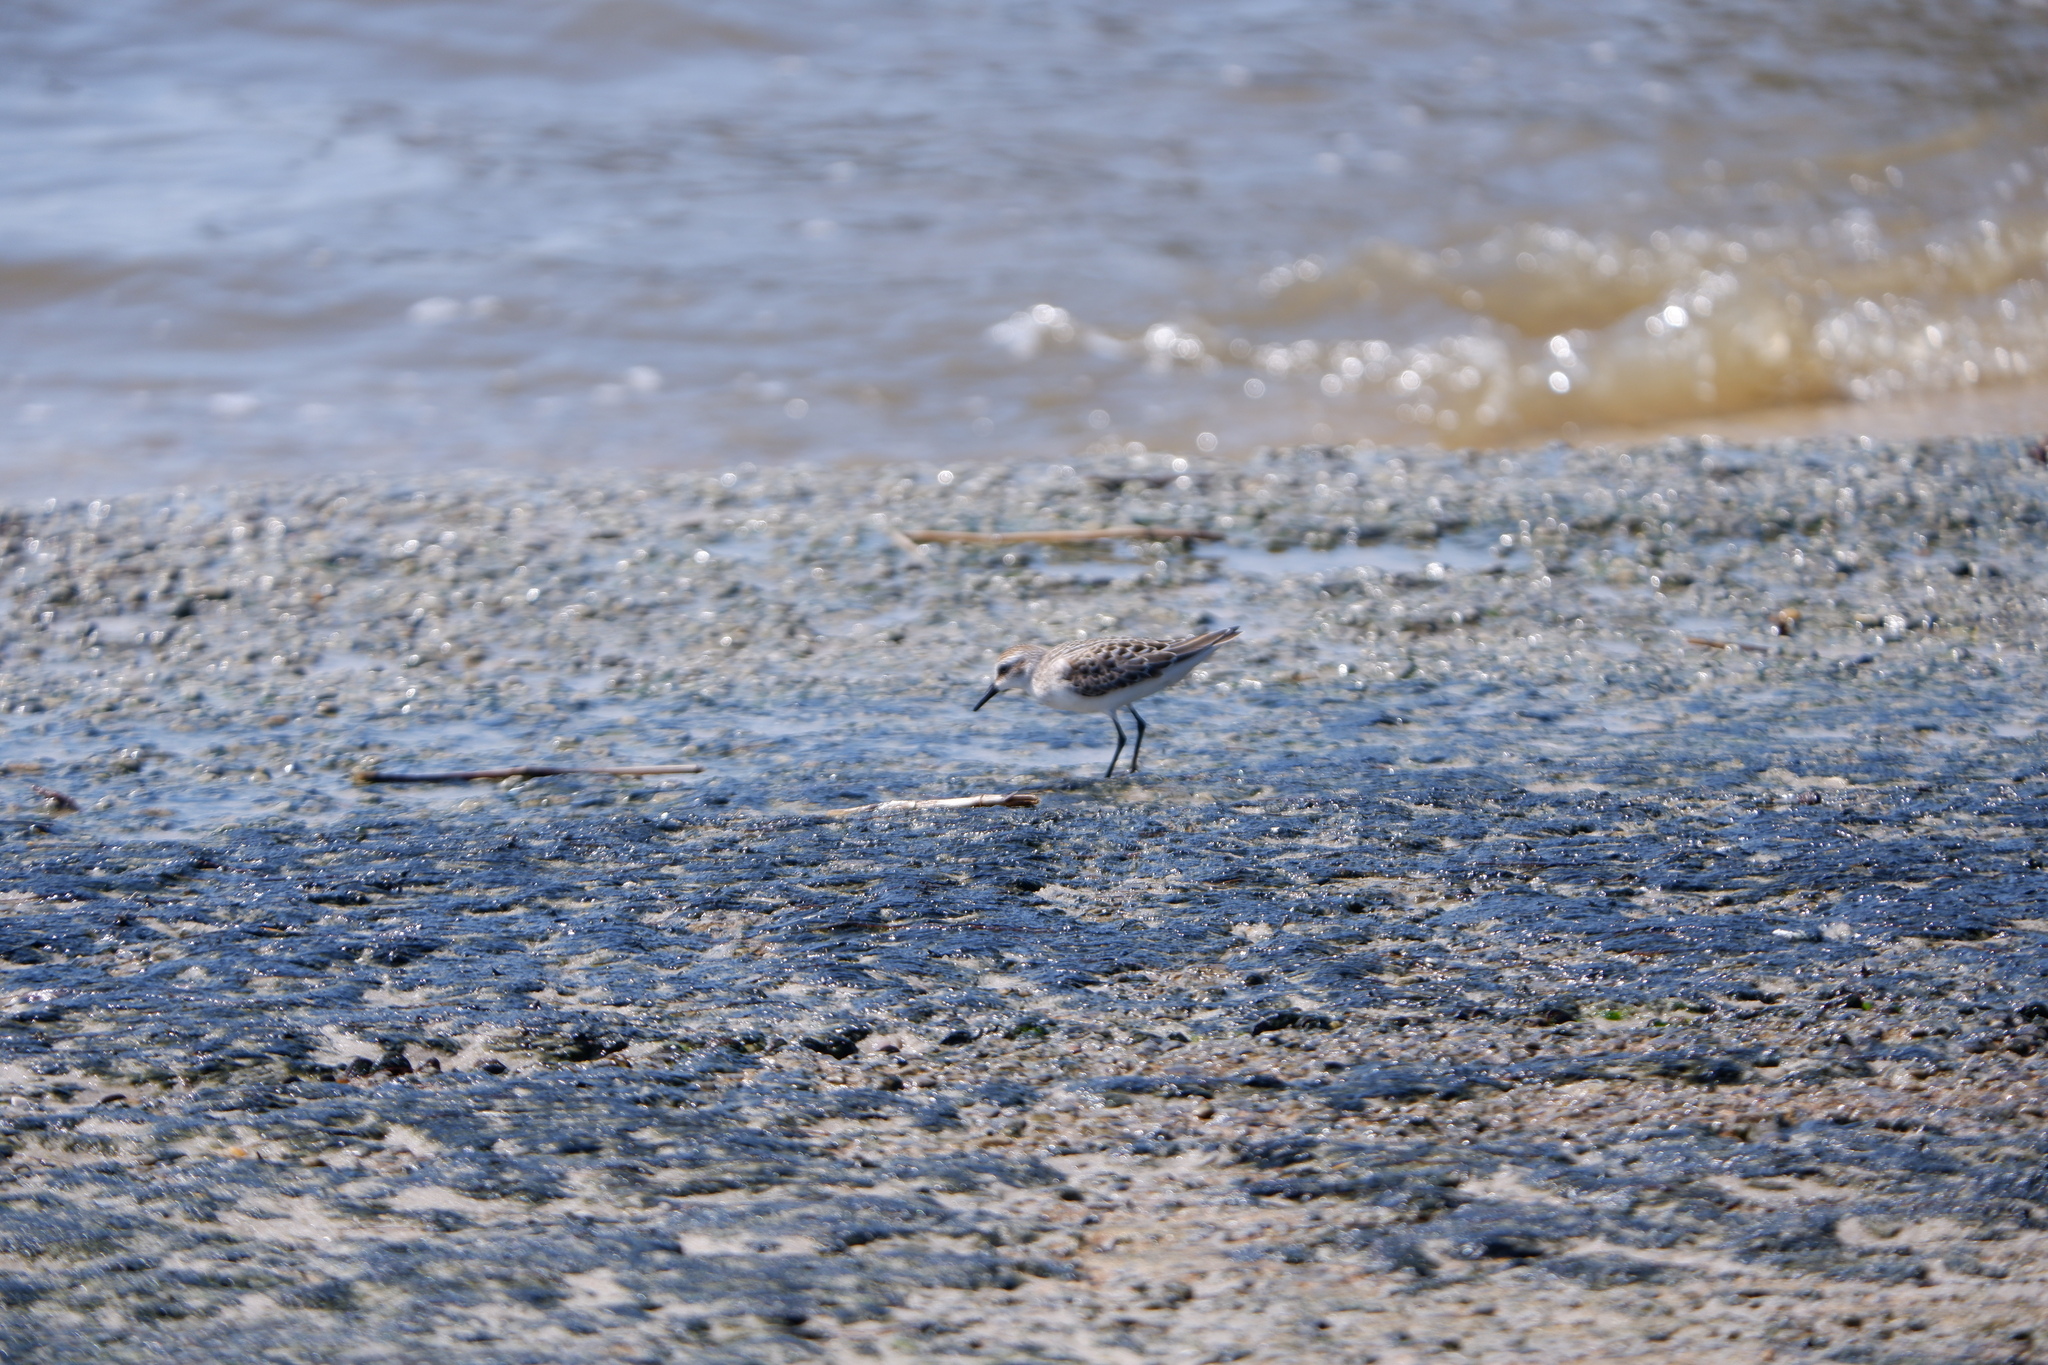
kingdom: Animalia
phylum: Chordata
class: Aves
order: Charadriiformes
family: Scolopacidae
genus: Calidris
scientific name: Calidris pusilla
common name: Semipalmated sandpiper
